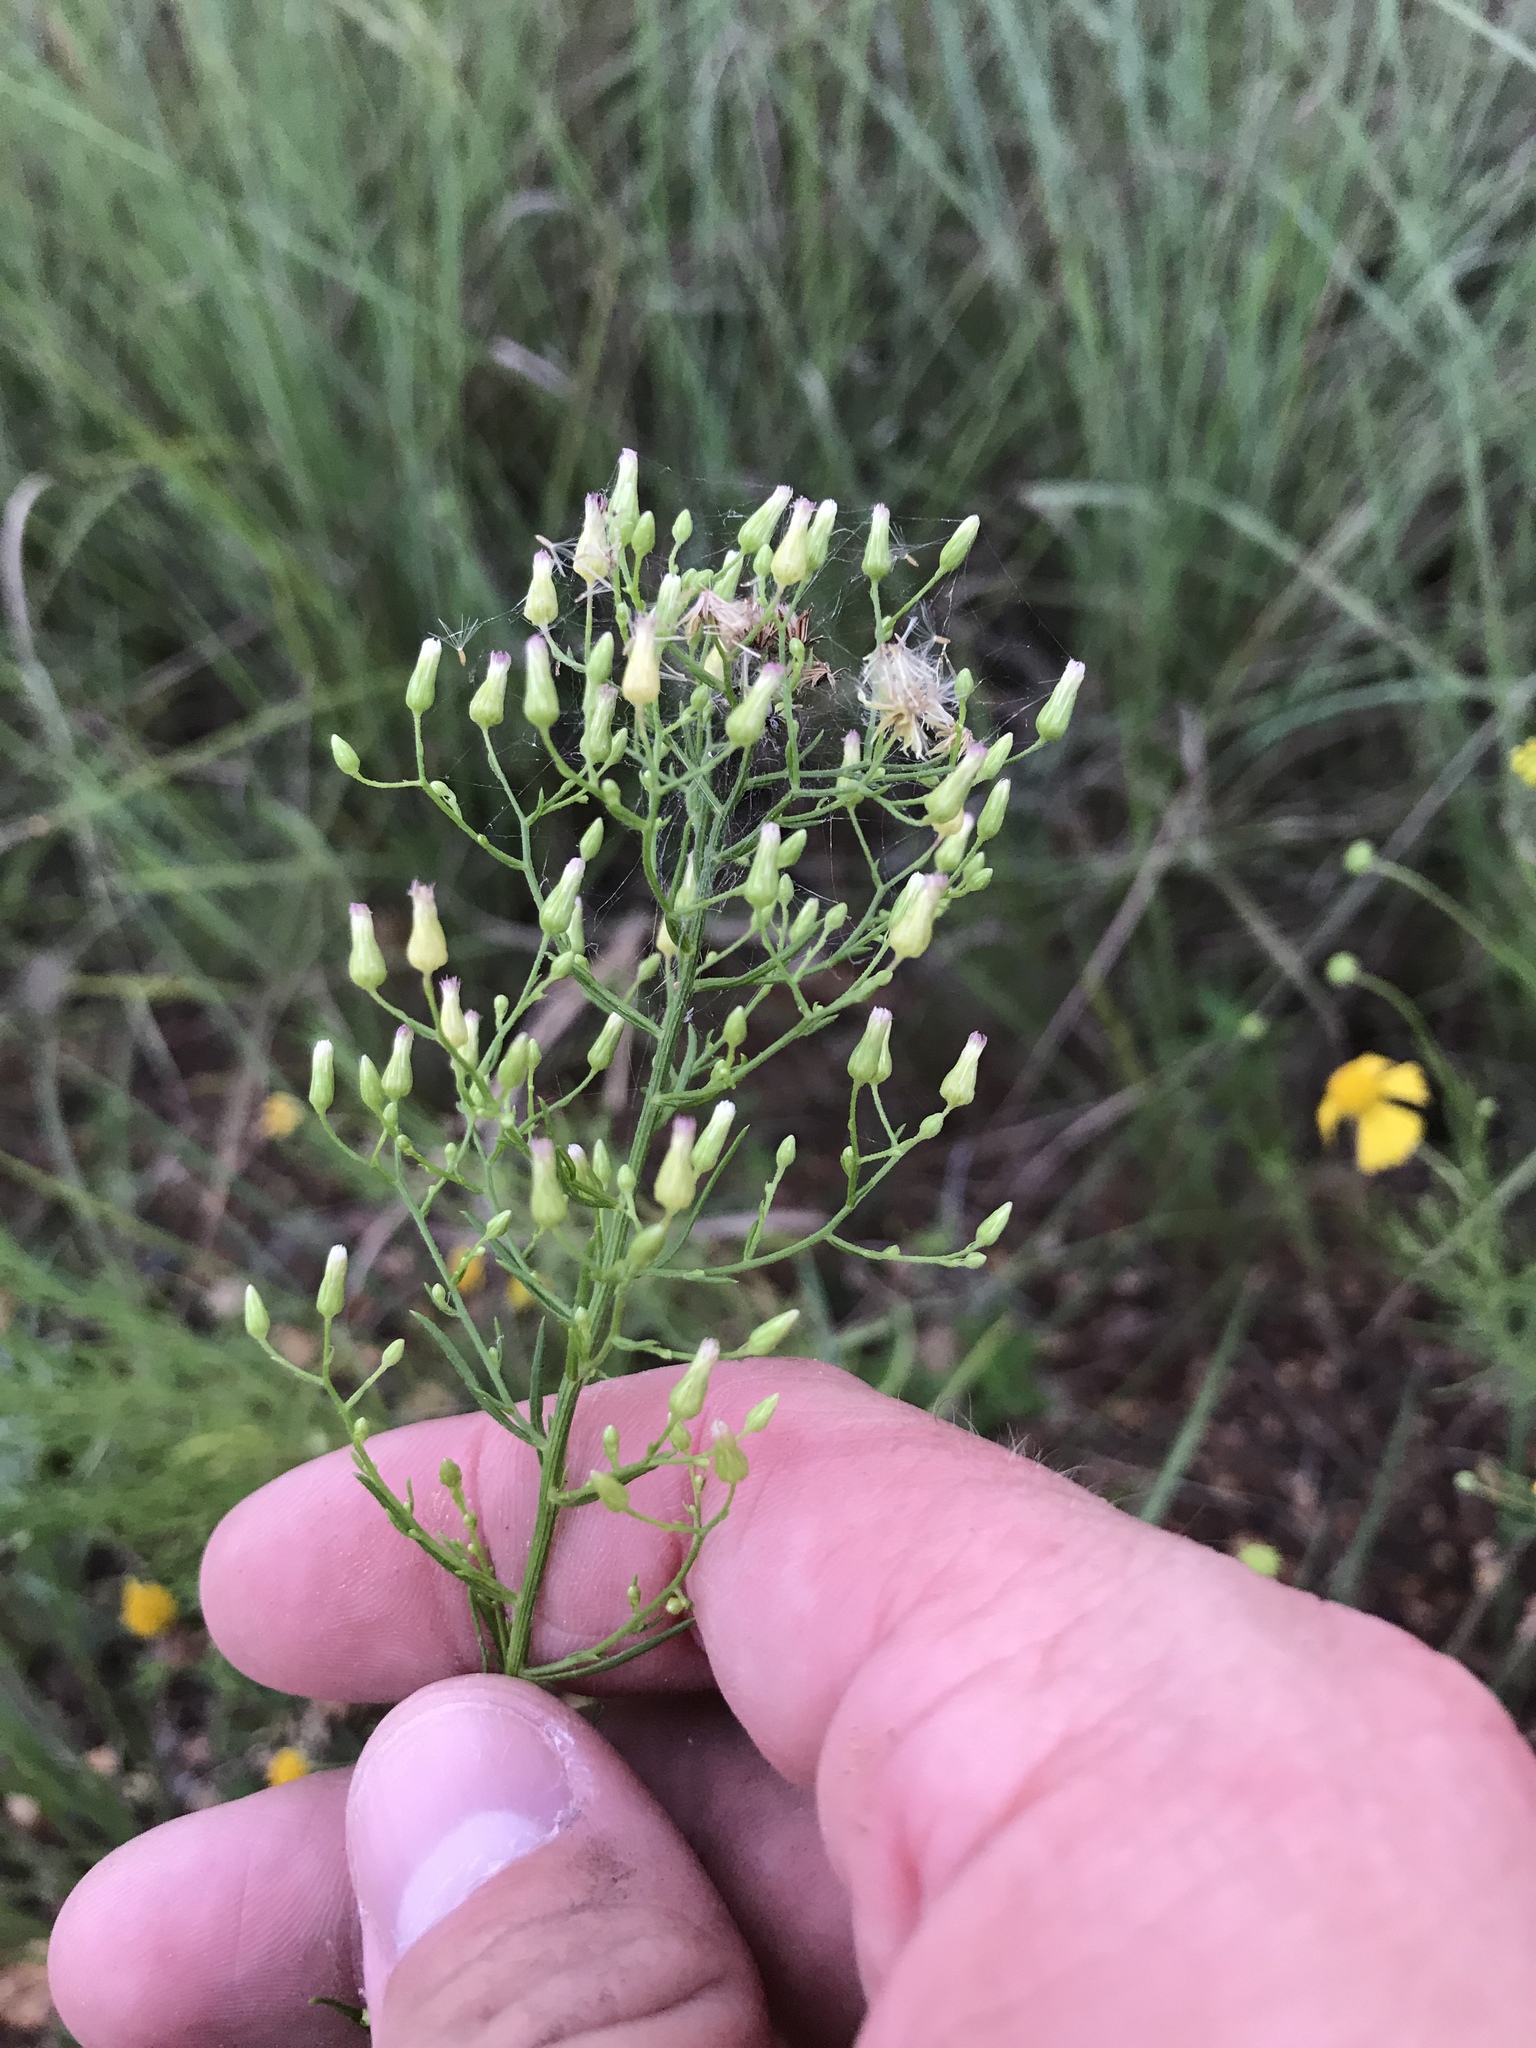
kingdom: Plantae
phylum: Tracheophyta
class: Magnoliopsida
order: Asterales
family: Asteraceae
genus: Erigeron
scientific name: Erigeron canadensis
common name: Canadian fleabane
